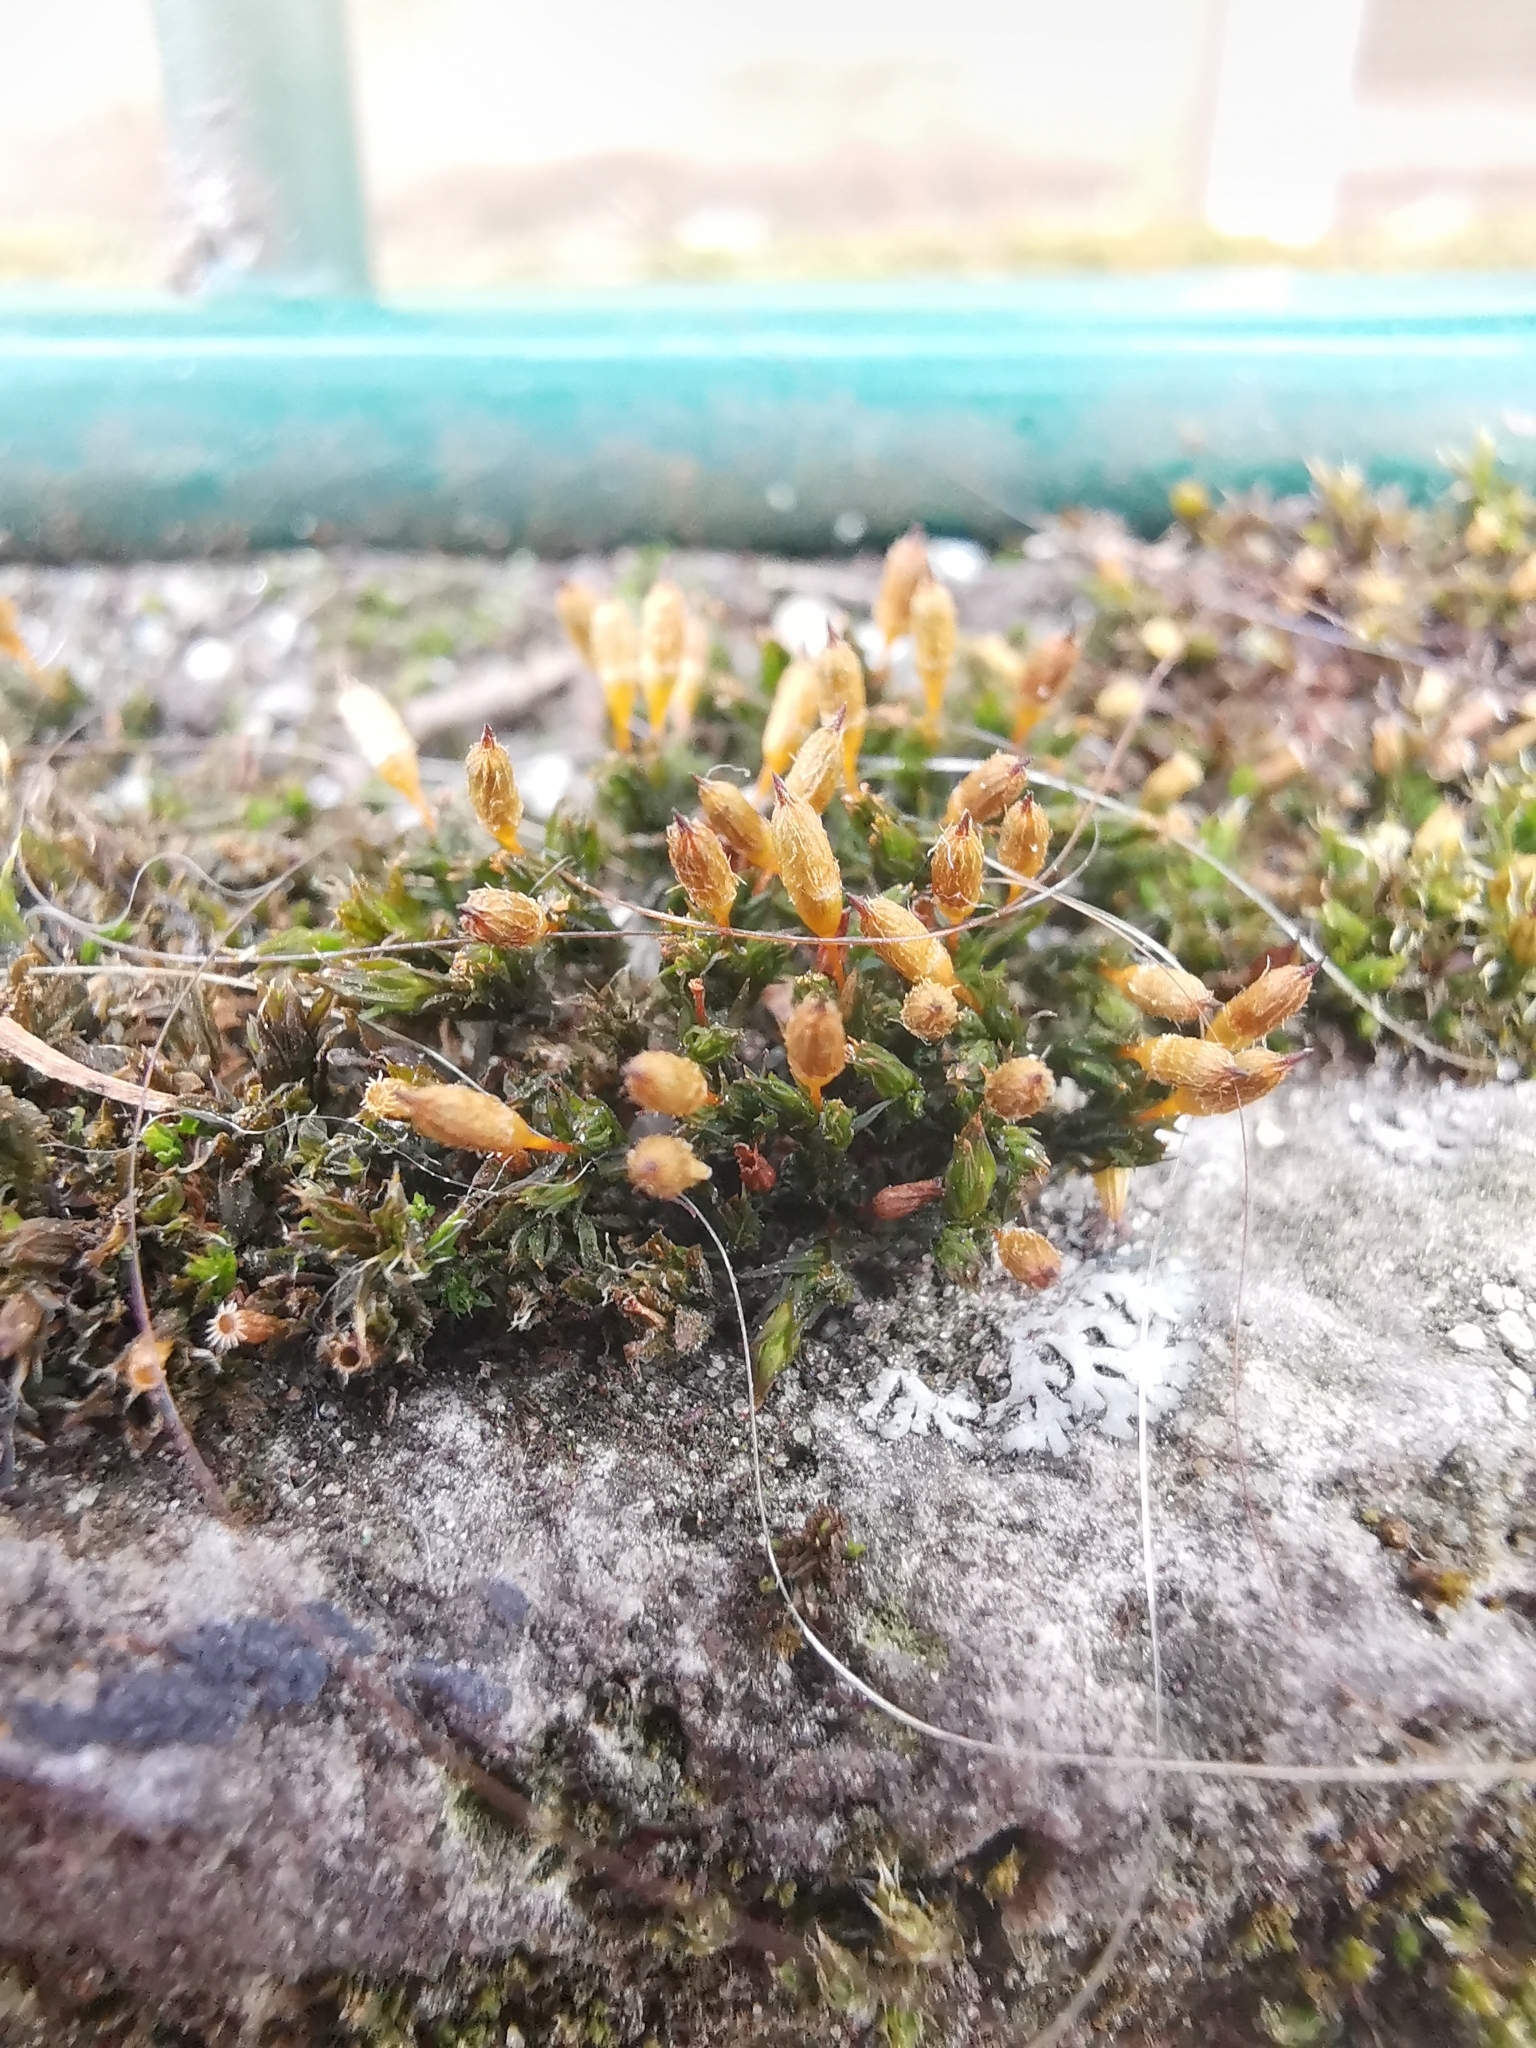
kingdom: Plantae
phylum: Bryophyta
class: Bryopsida
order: Orthotrichales
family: Orthotrichaceae
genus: Orthotrichum
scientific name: Orthotrichum anomalum
